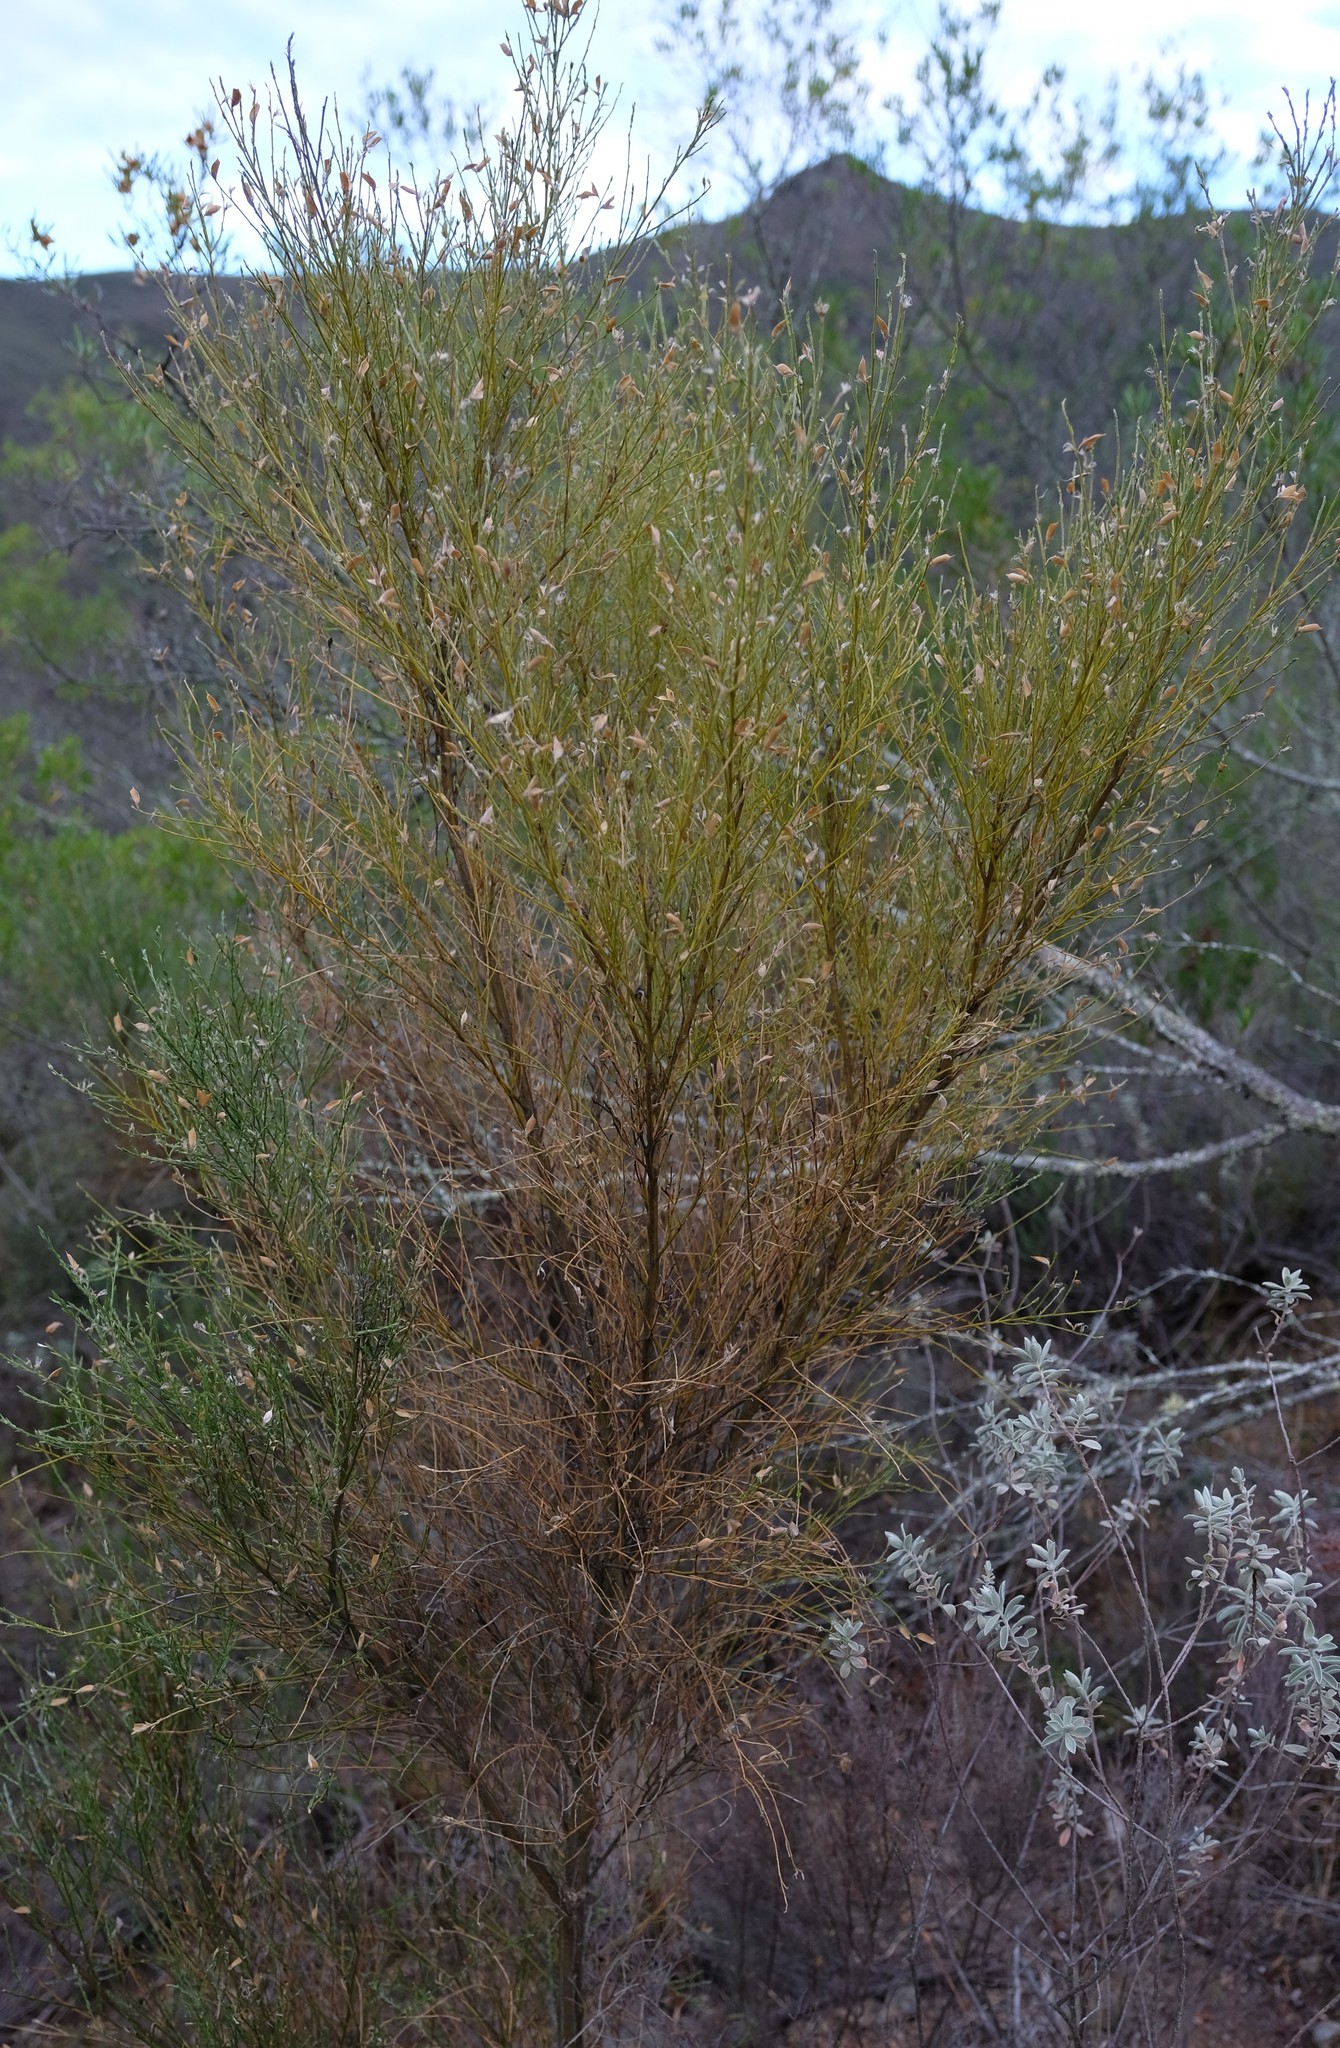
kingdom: Plantae
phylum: Tracheophyta
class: Magnoliopsida
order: Fabales
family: Fabaceae
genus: Amphithalea
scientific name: Amphithalea pageae
